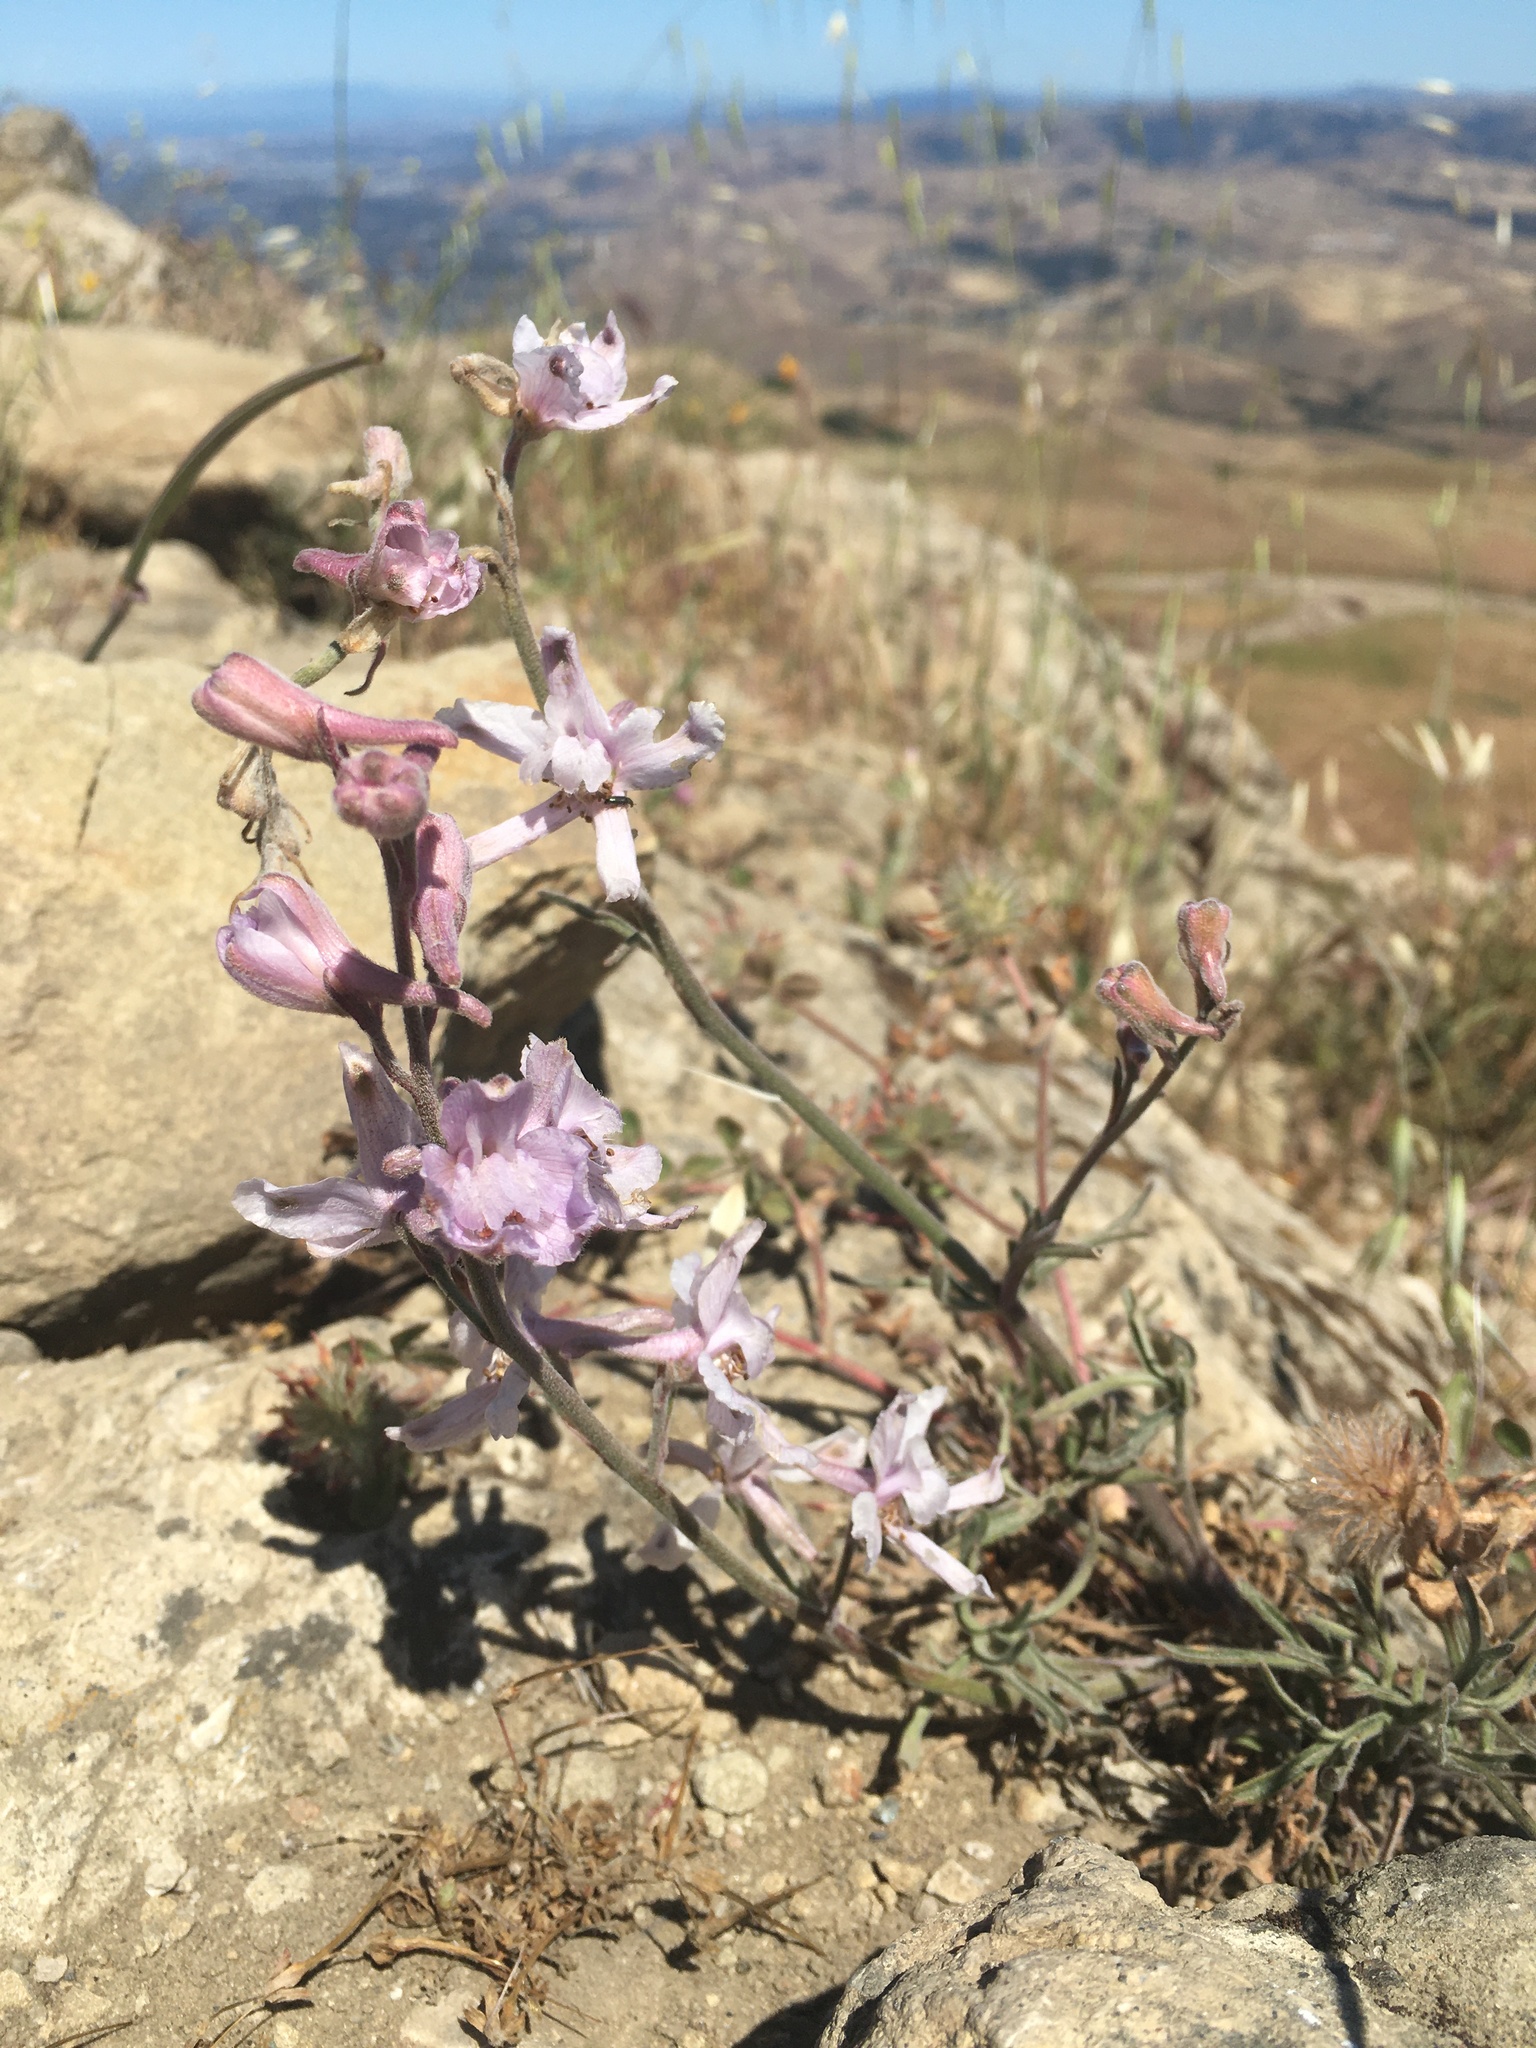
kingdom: Plantae
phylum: Tracheophyta
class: Magnoliopsida
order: Ranunculales
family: Ranunculaceae
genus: Delphinium
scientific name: Delphinium hesperium
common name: Western larkspur
